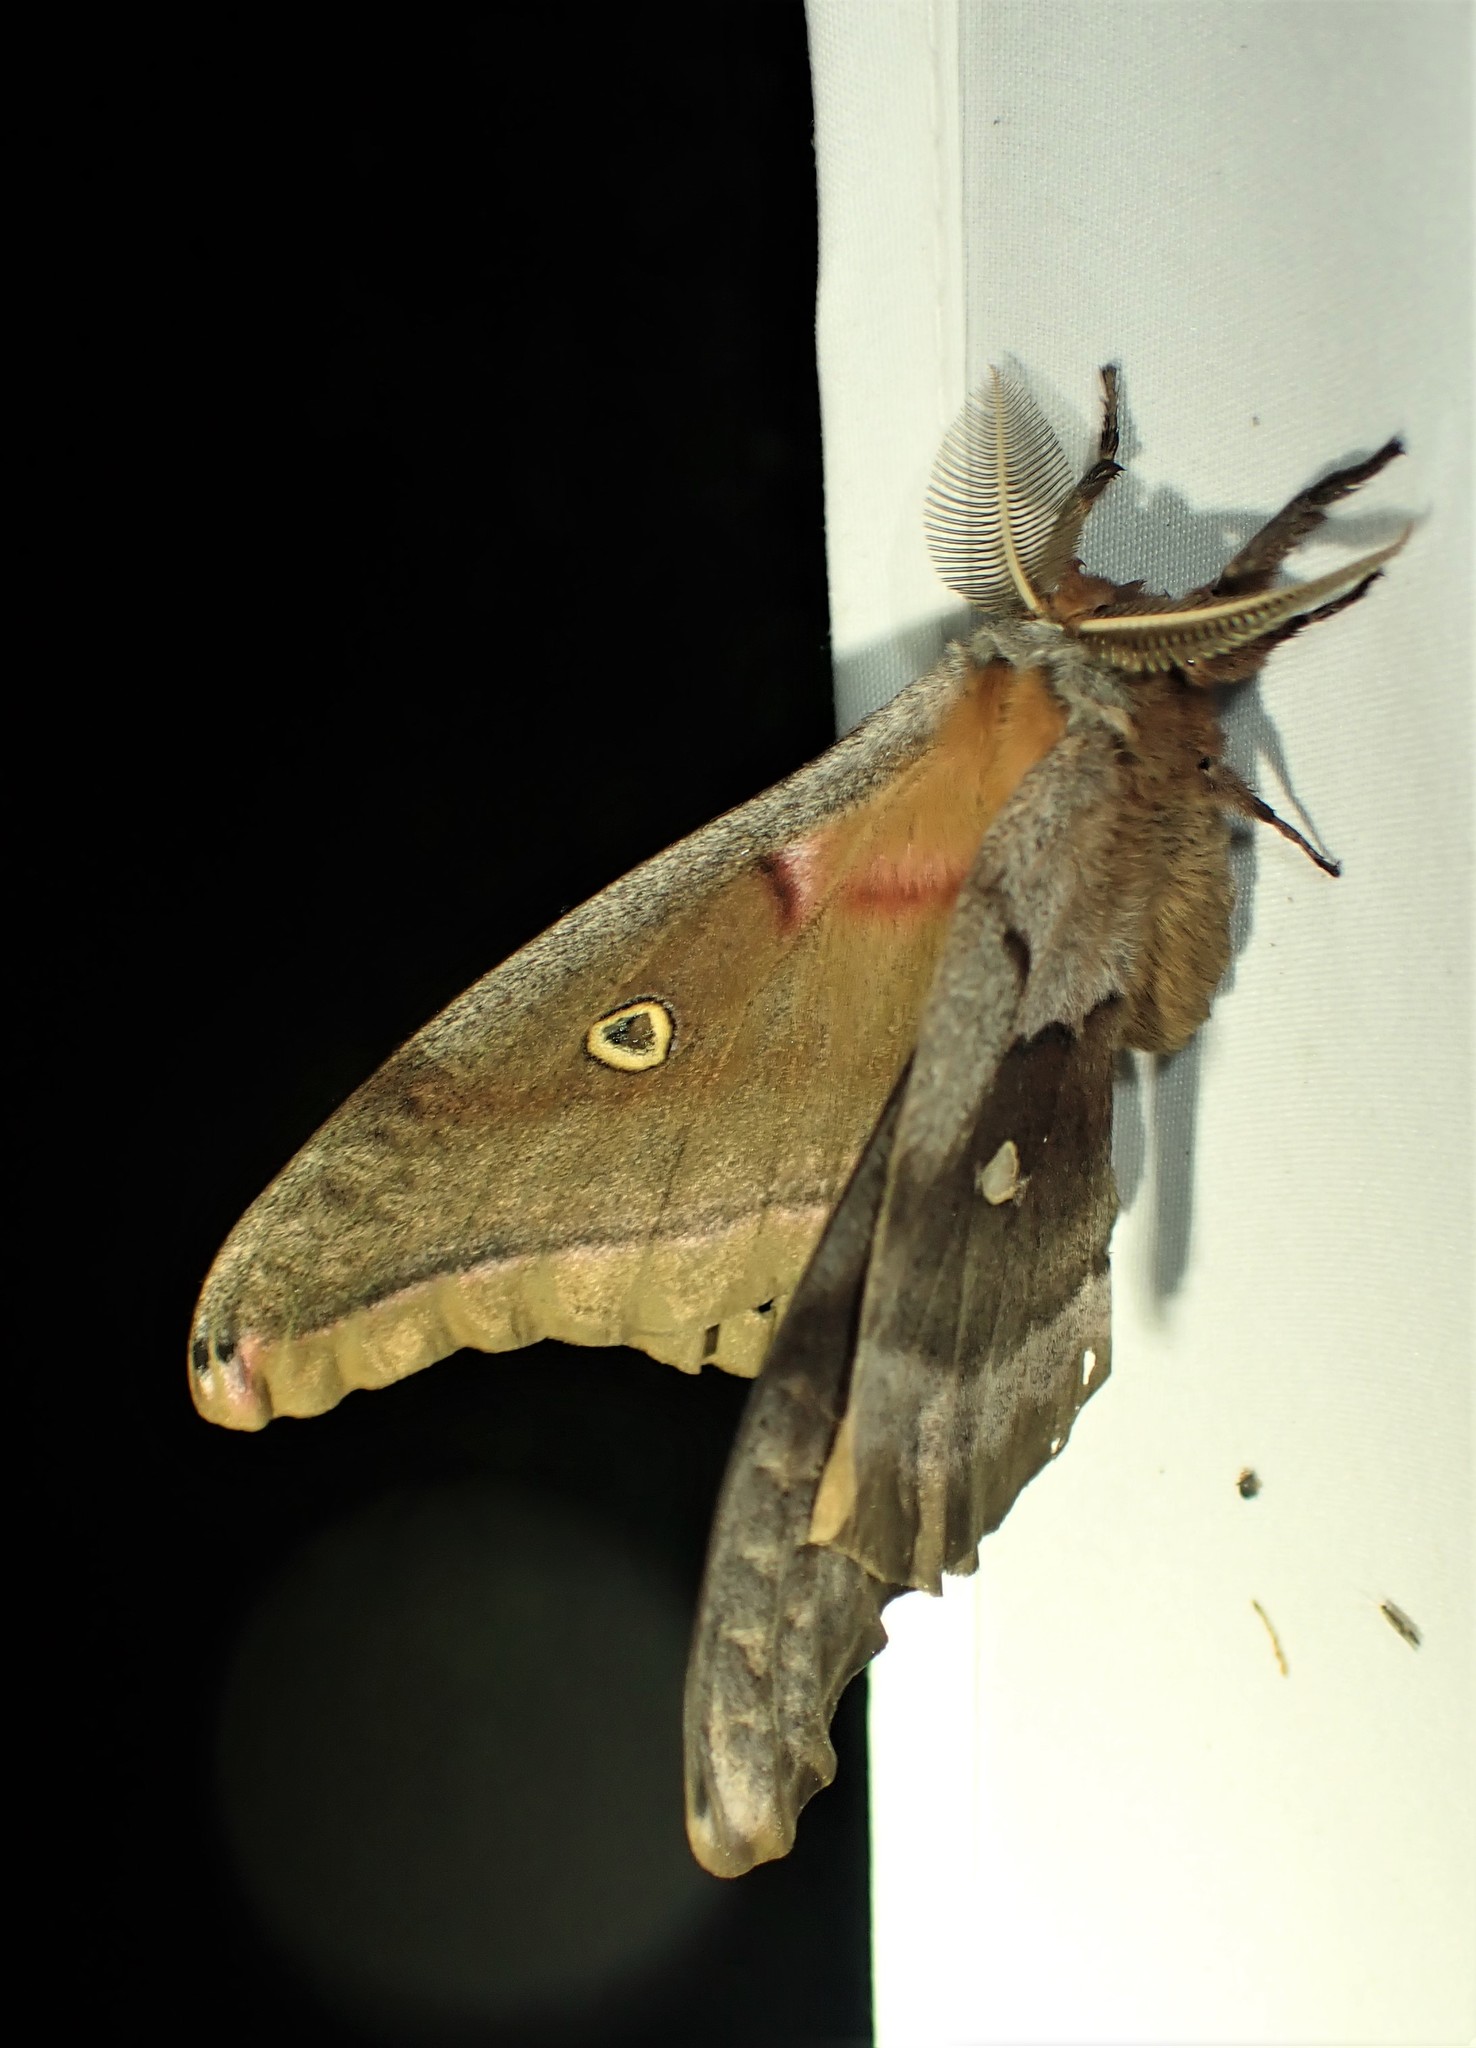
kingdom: Animalia
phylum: Arthropoda
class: Insecta
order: Lepidoptera
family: Saturniidae
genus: Antheraea
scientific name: Antheraea polyphemus
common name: Polyphemus moth
